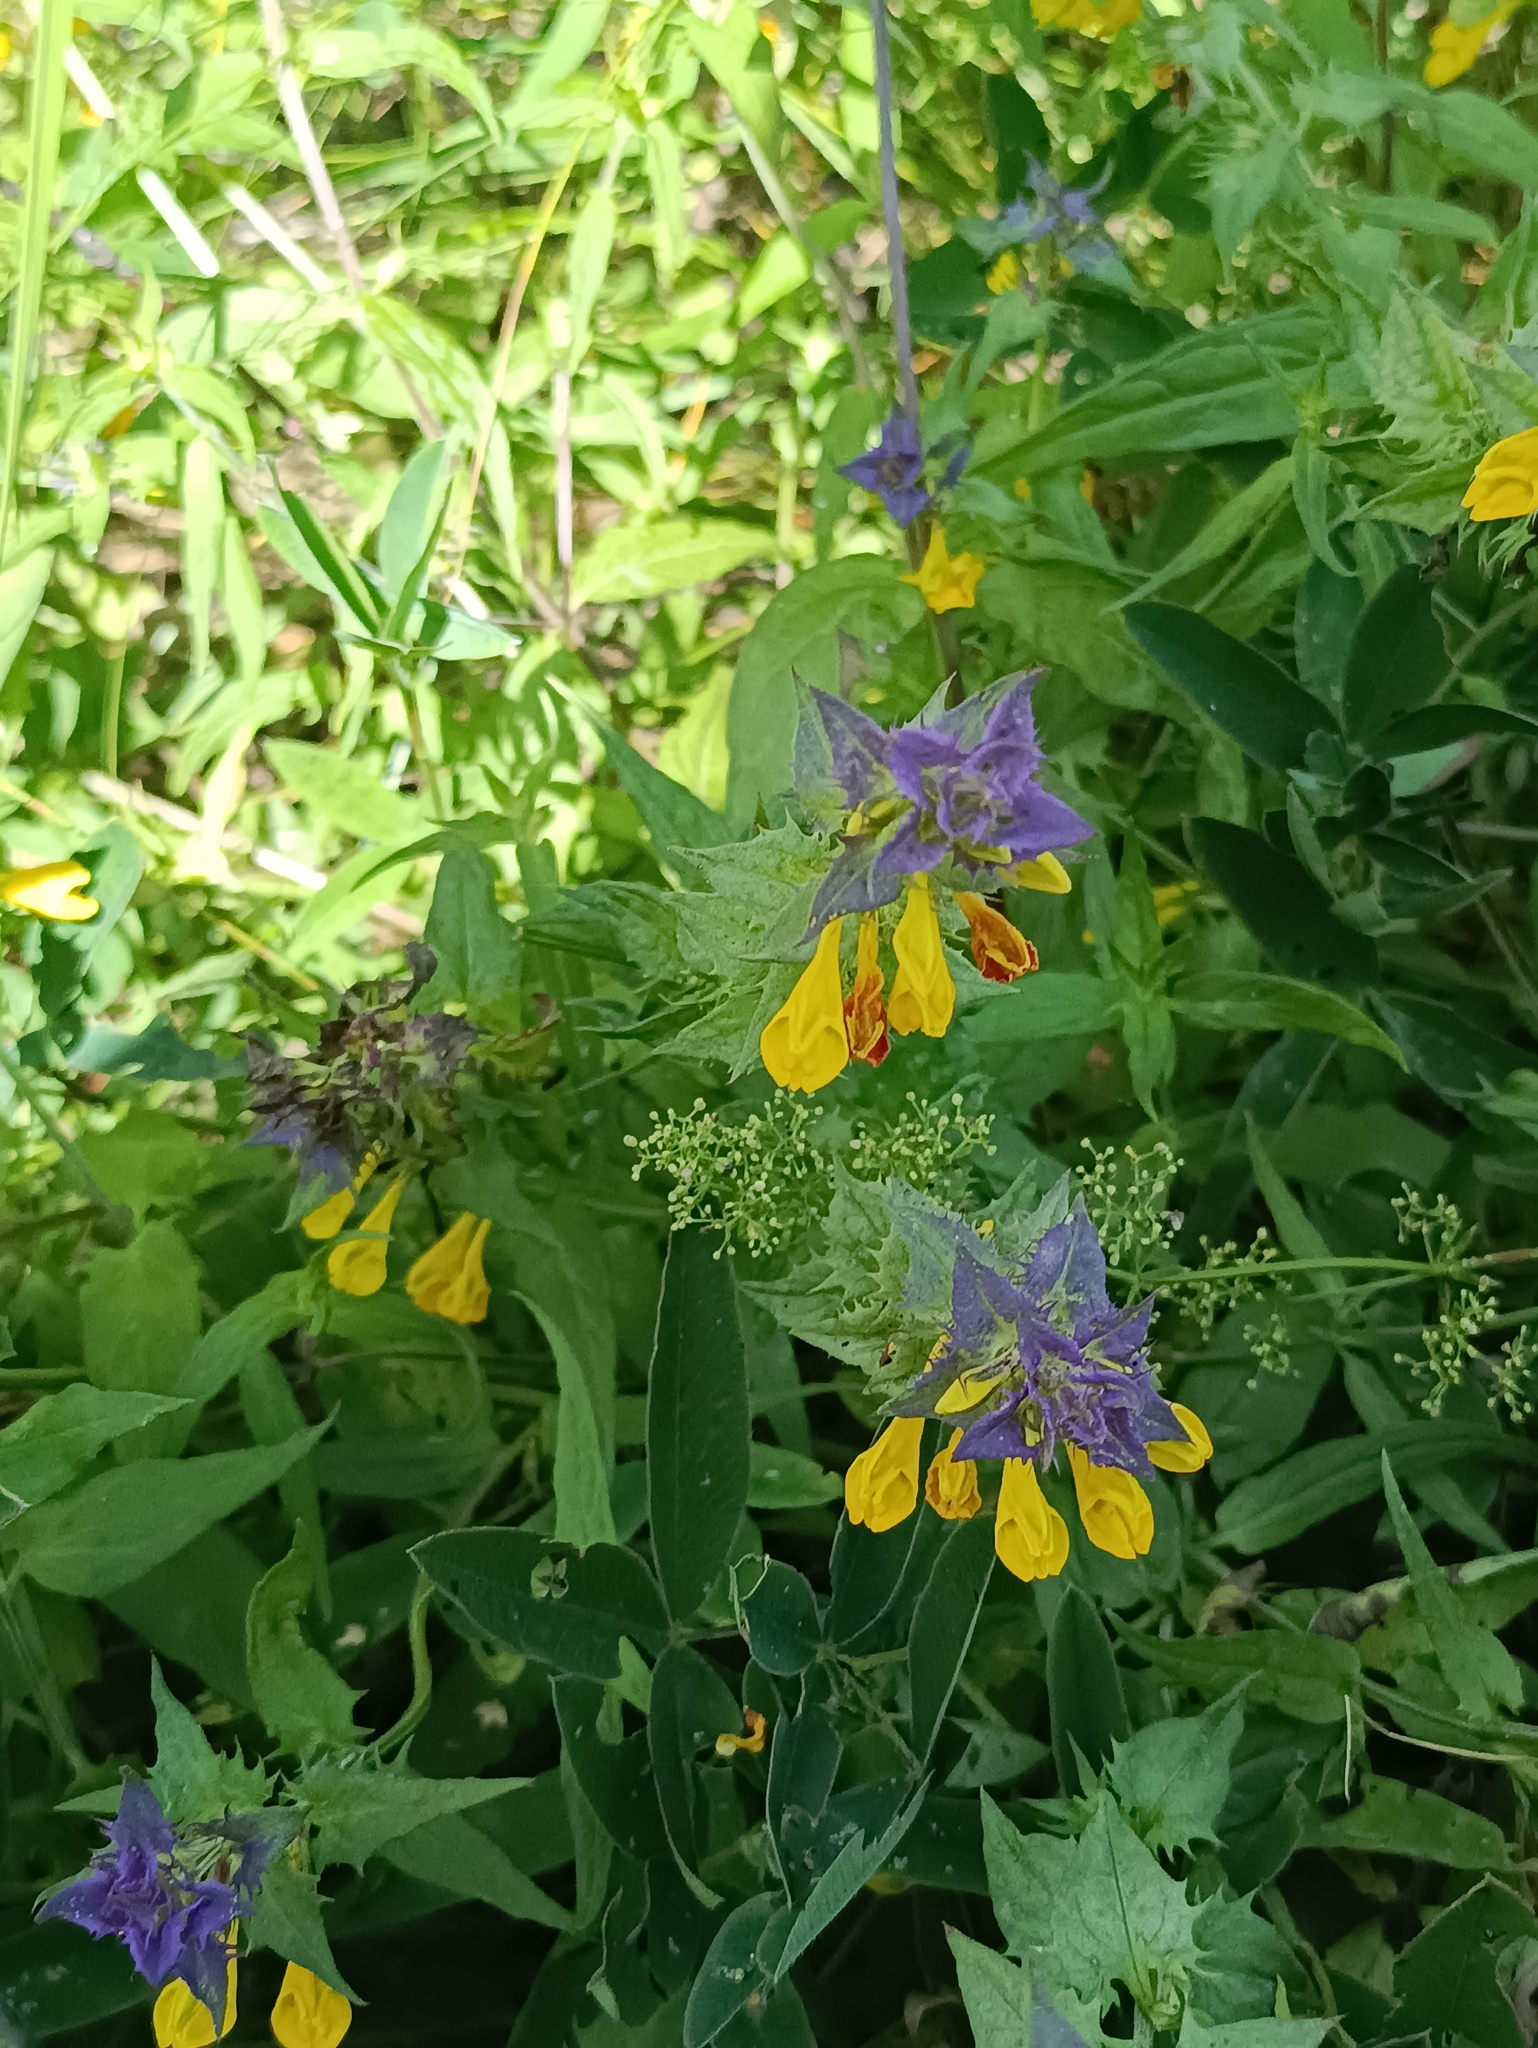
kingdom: Plantae
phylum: Tracheophyta
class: Magnoliopsida
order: Lamiales
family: Orobanchaceae
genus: Melampyrum
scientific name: Melampyrum nemorosum
